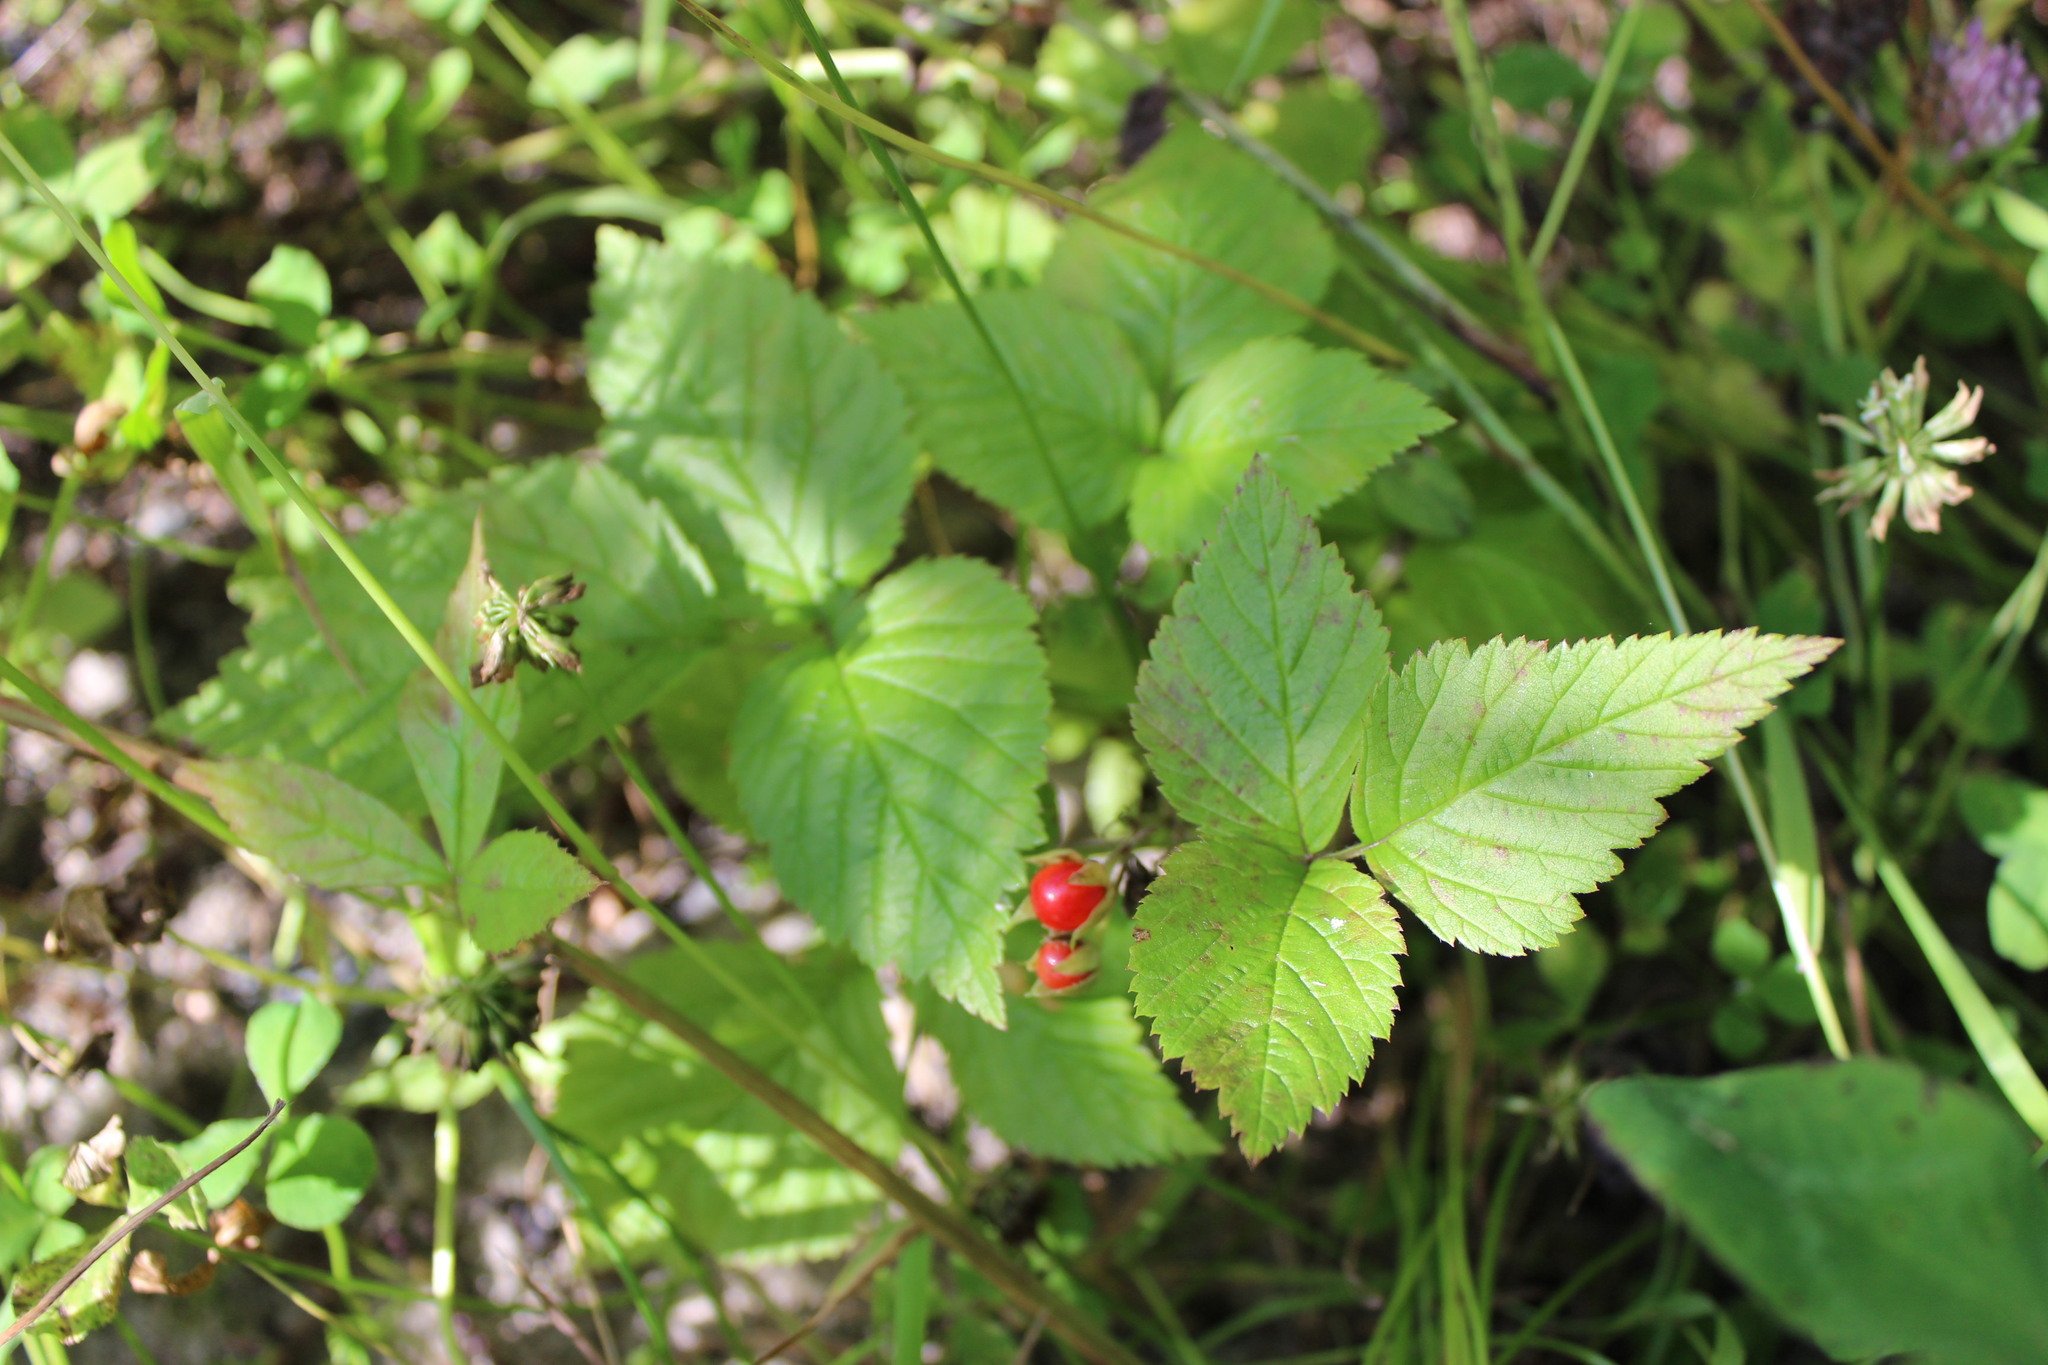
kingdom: Plantae
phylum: Tracheophyta
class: Magnoliopsida
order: Rosales
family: Rosaceae
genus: Rubus
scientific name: Rubus saxatilis
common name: Stone bramble
